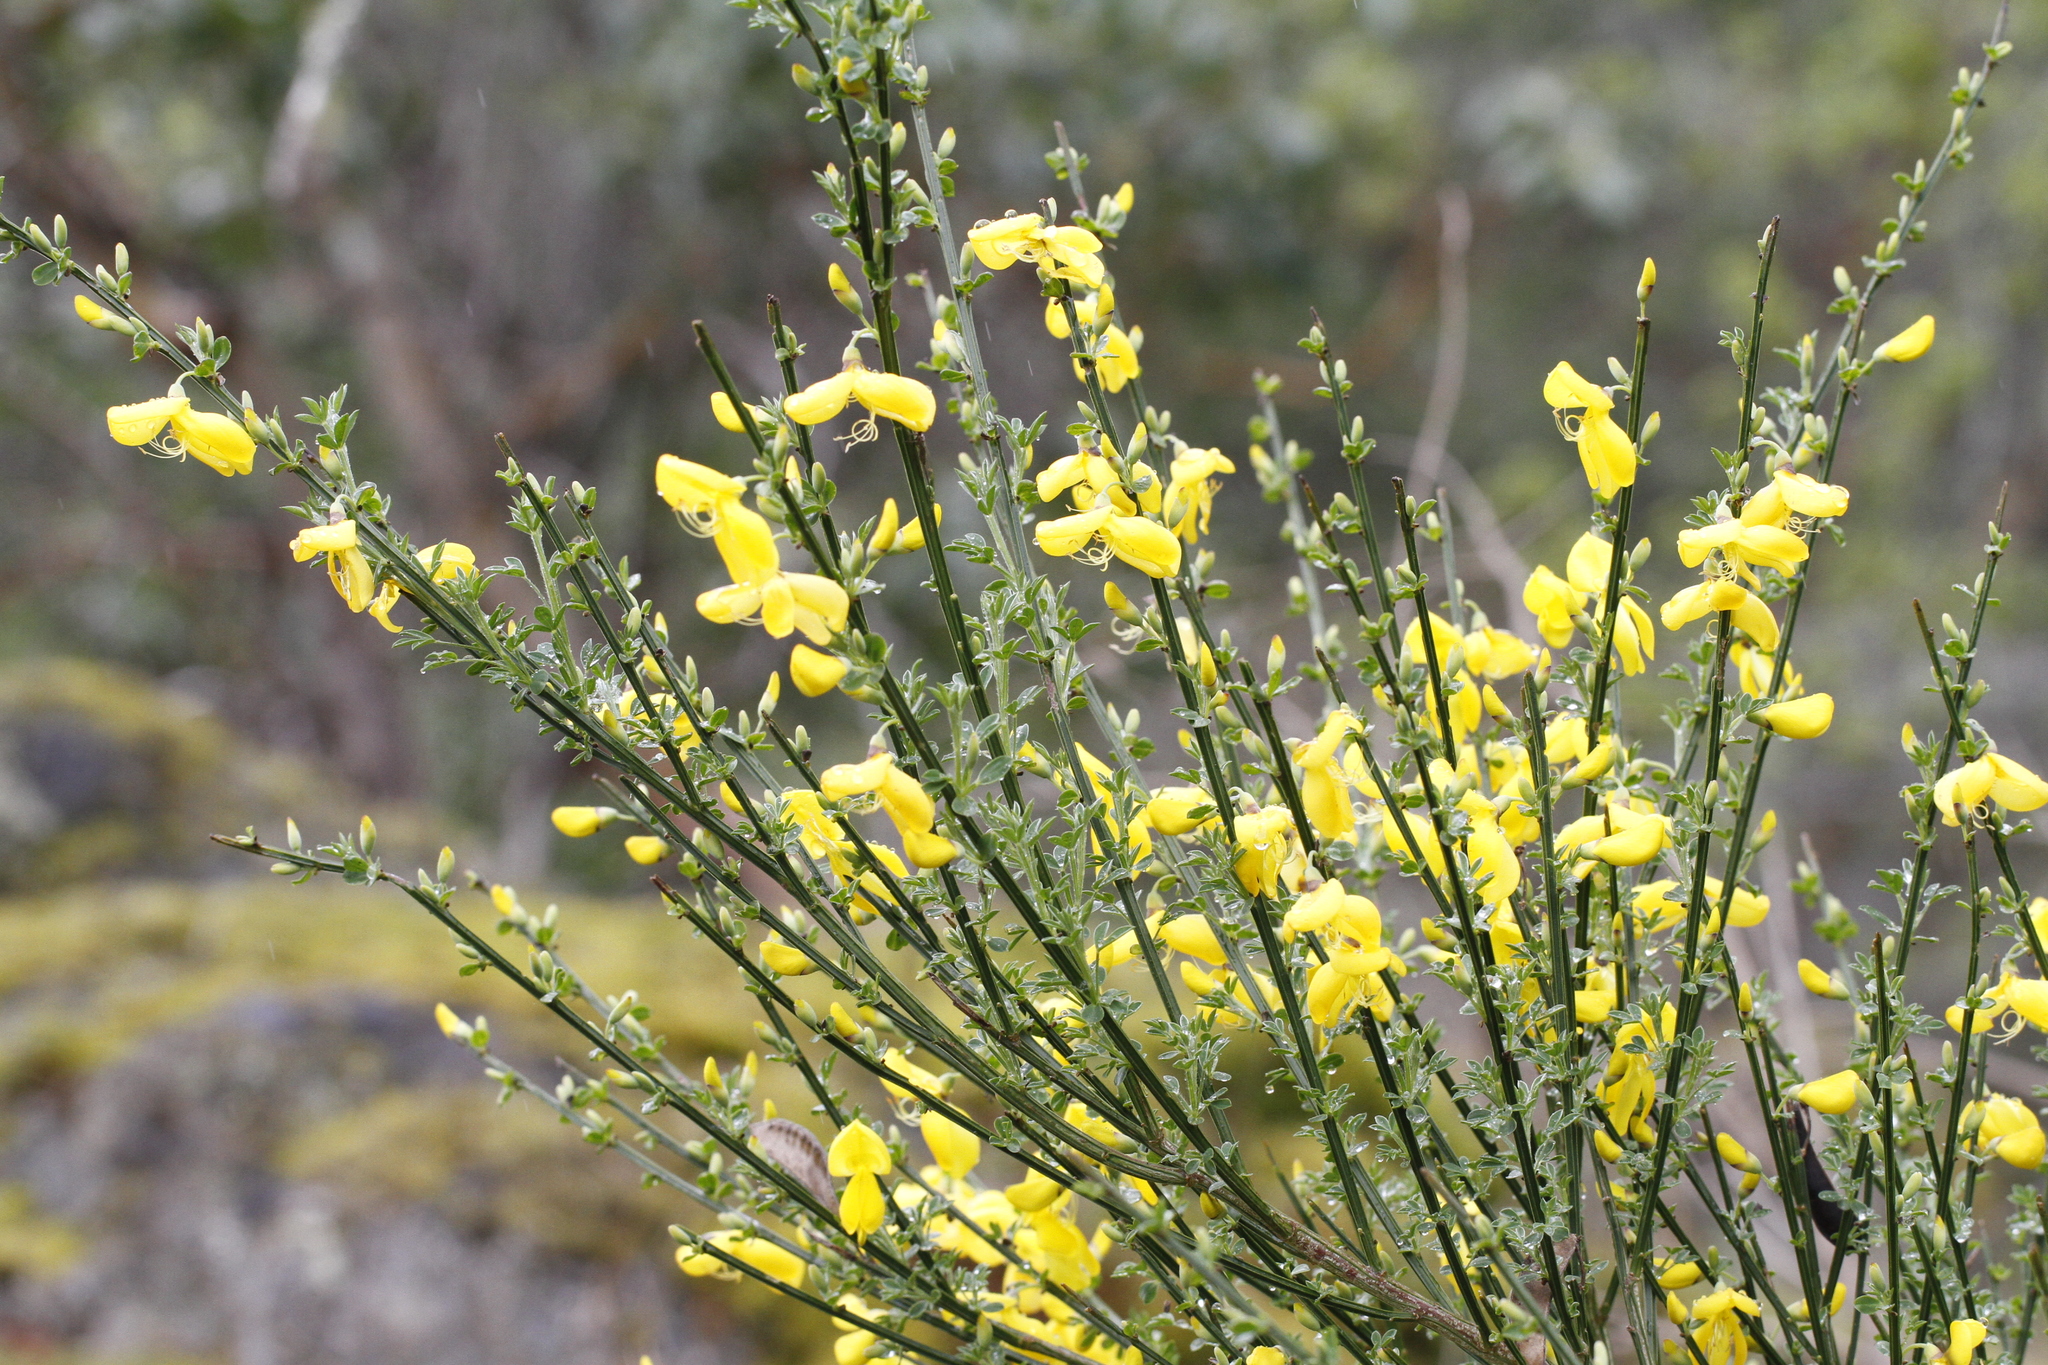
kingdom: Plantae
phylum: Tracheophyta
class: Magnoliopsida
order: Fabales
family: Fabaceae
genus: Cytisus
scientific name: Cytisus scoparius
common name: Scotch broom
